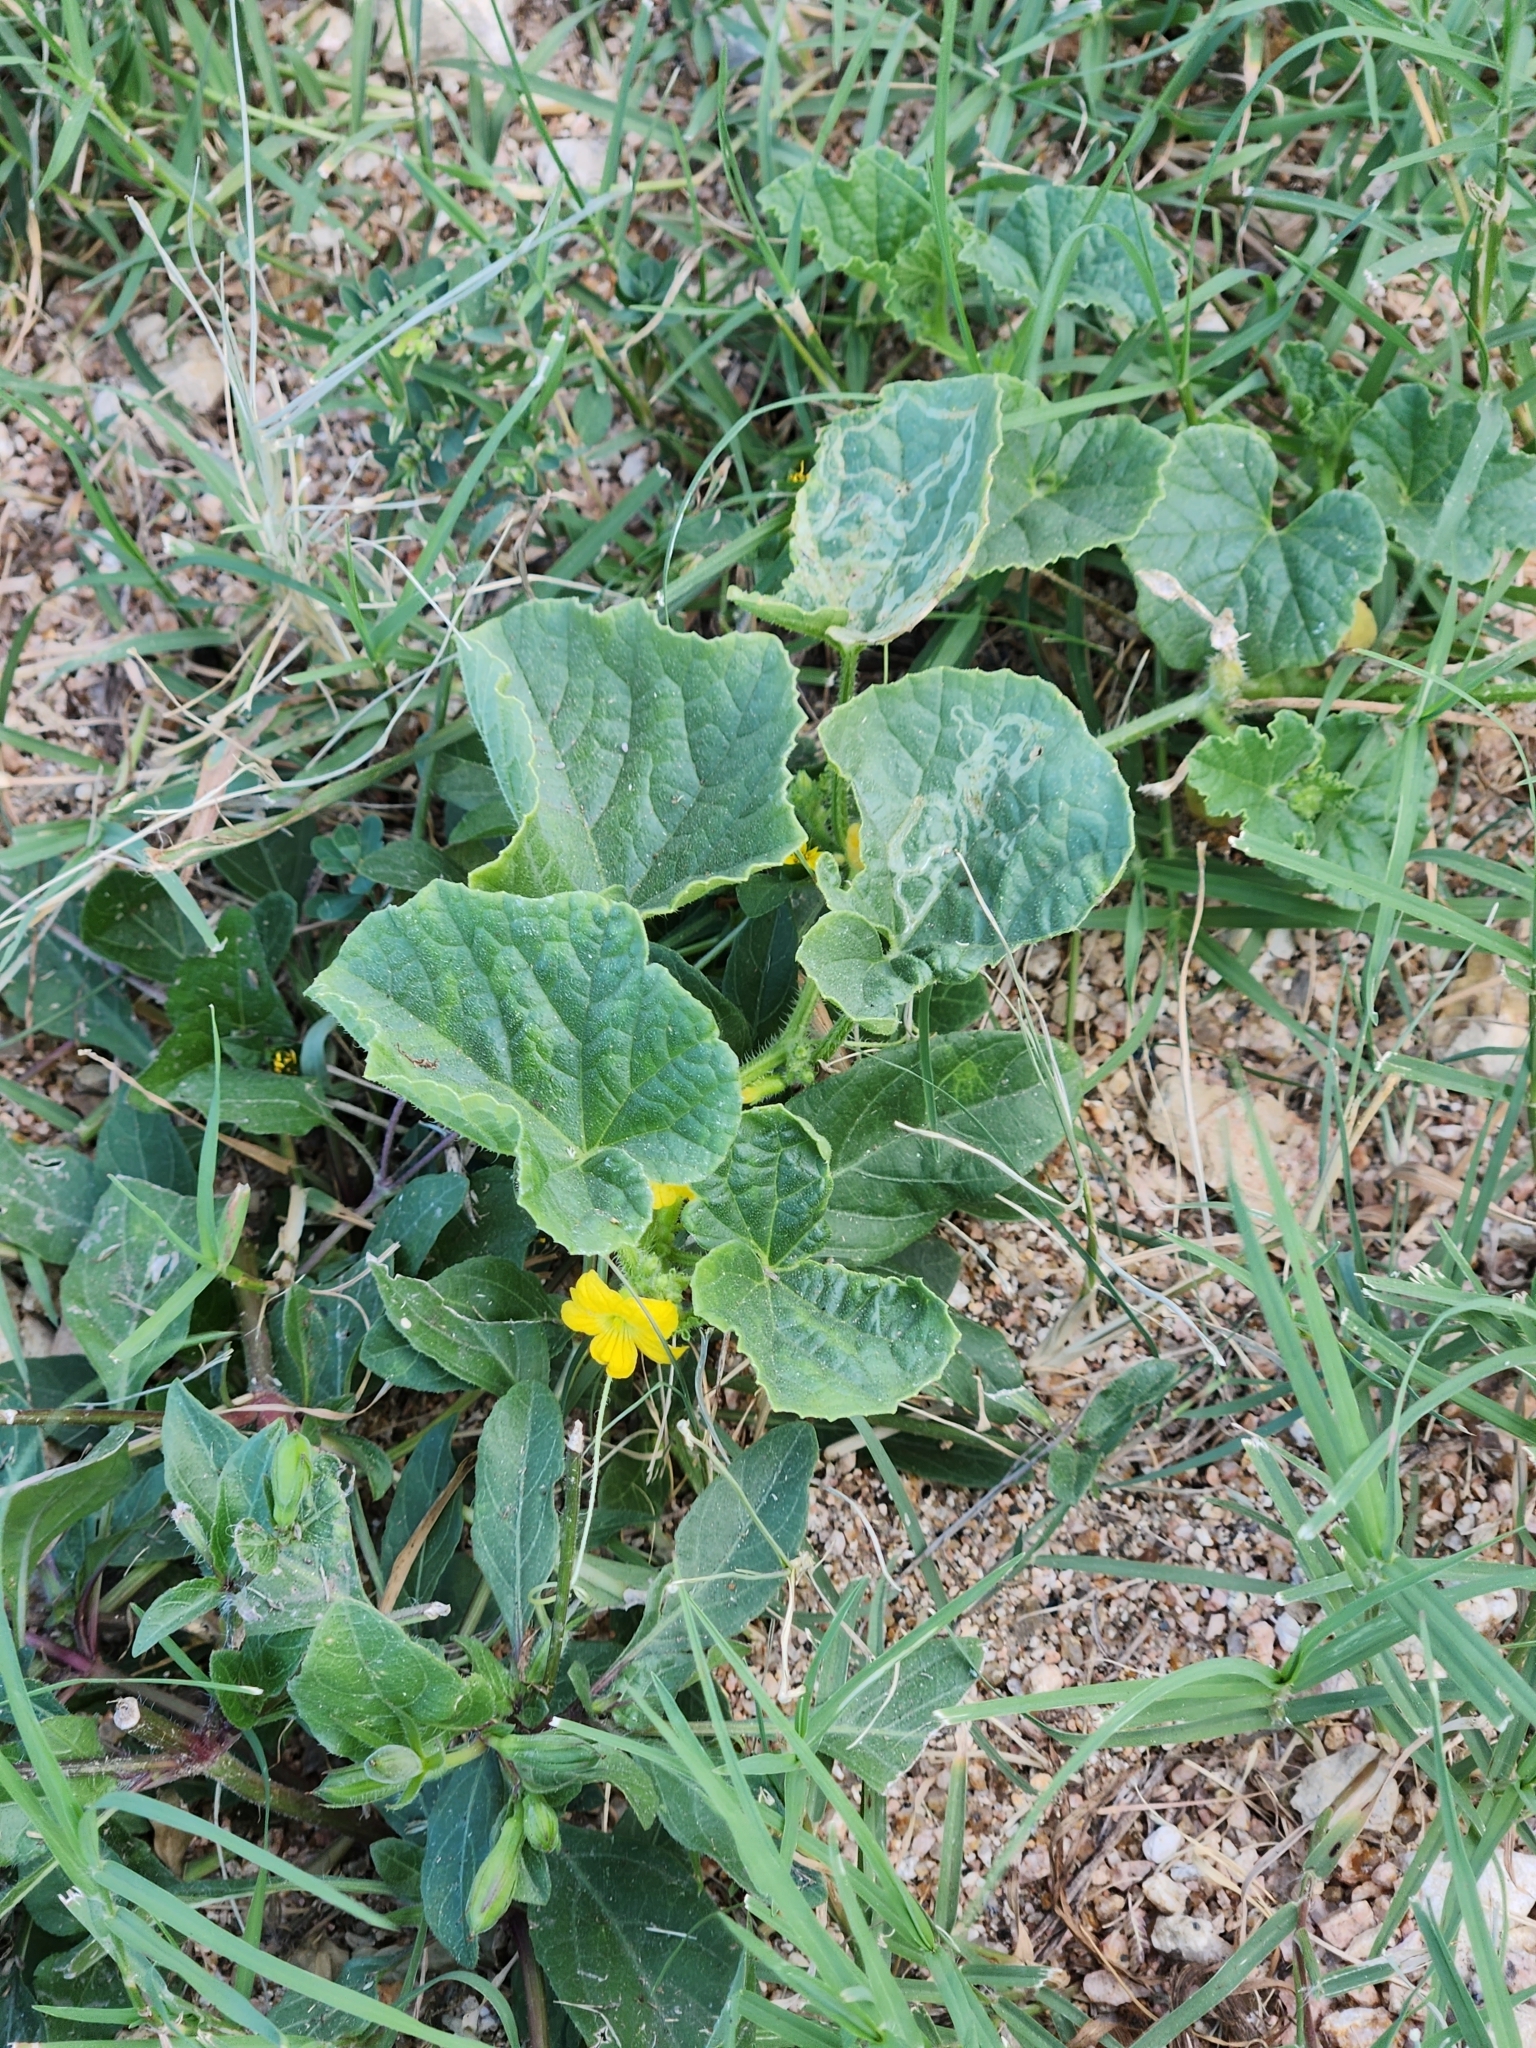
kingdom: Plantae
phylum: Tracheophyta
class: Magnoliopsida
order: Cucurbitales
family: Cucurbitaceae
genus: Cucumis
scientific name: Cucumis melo
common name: Melon
